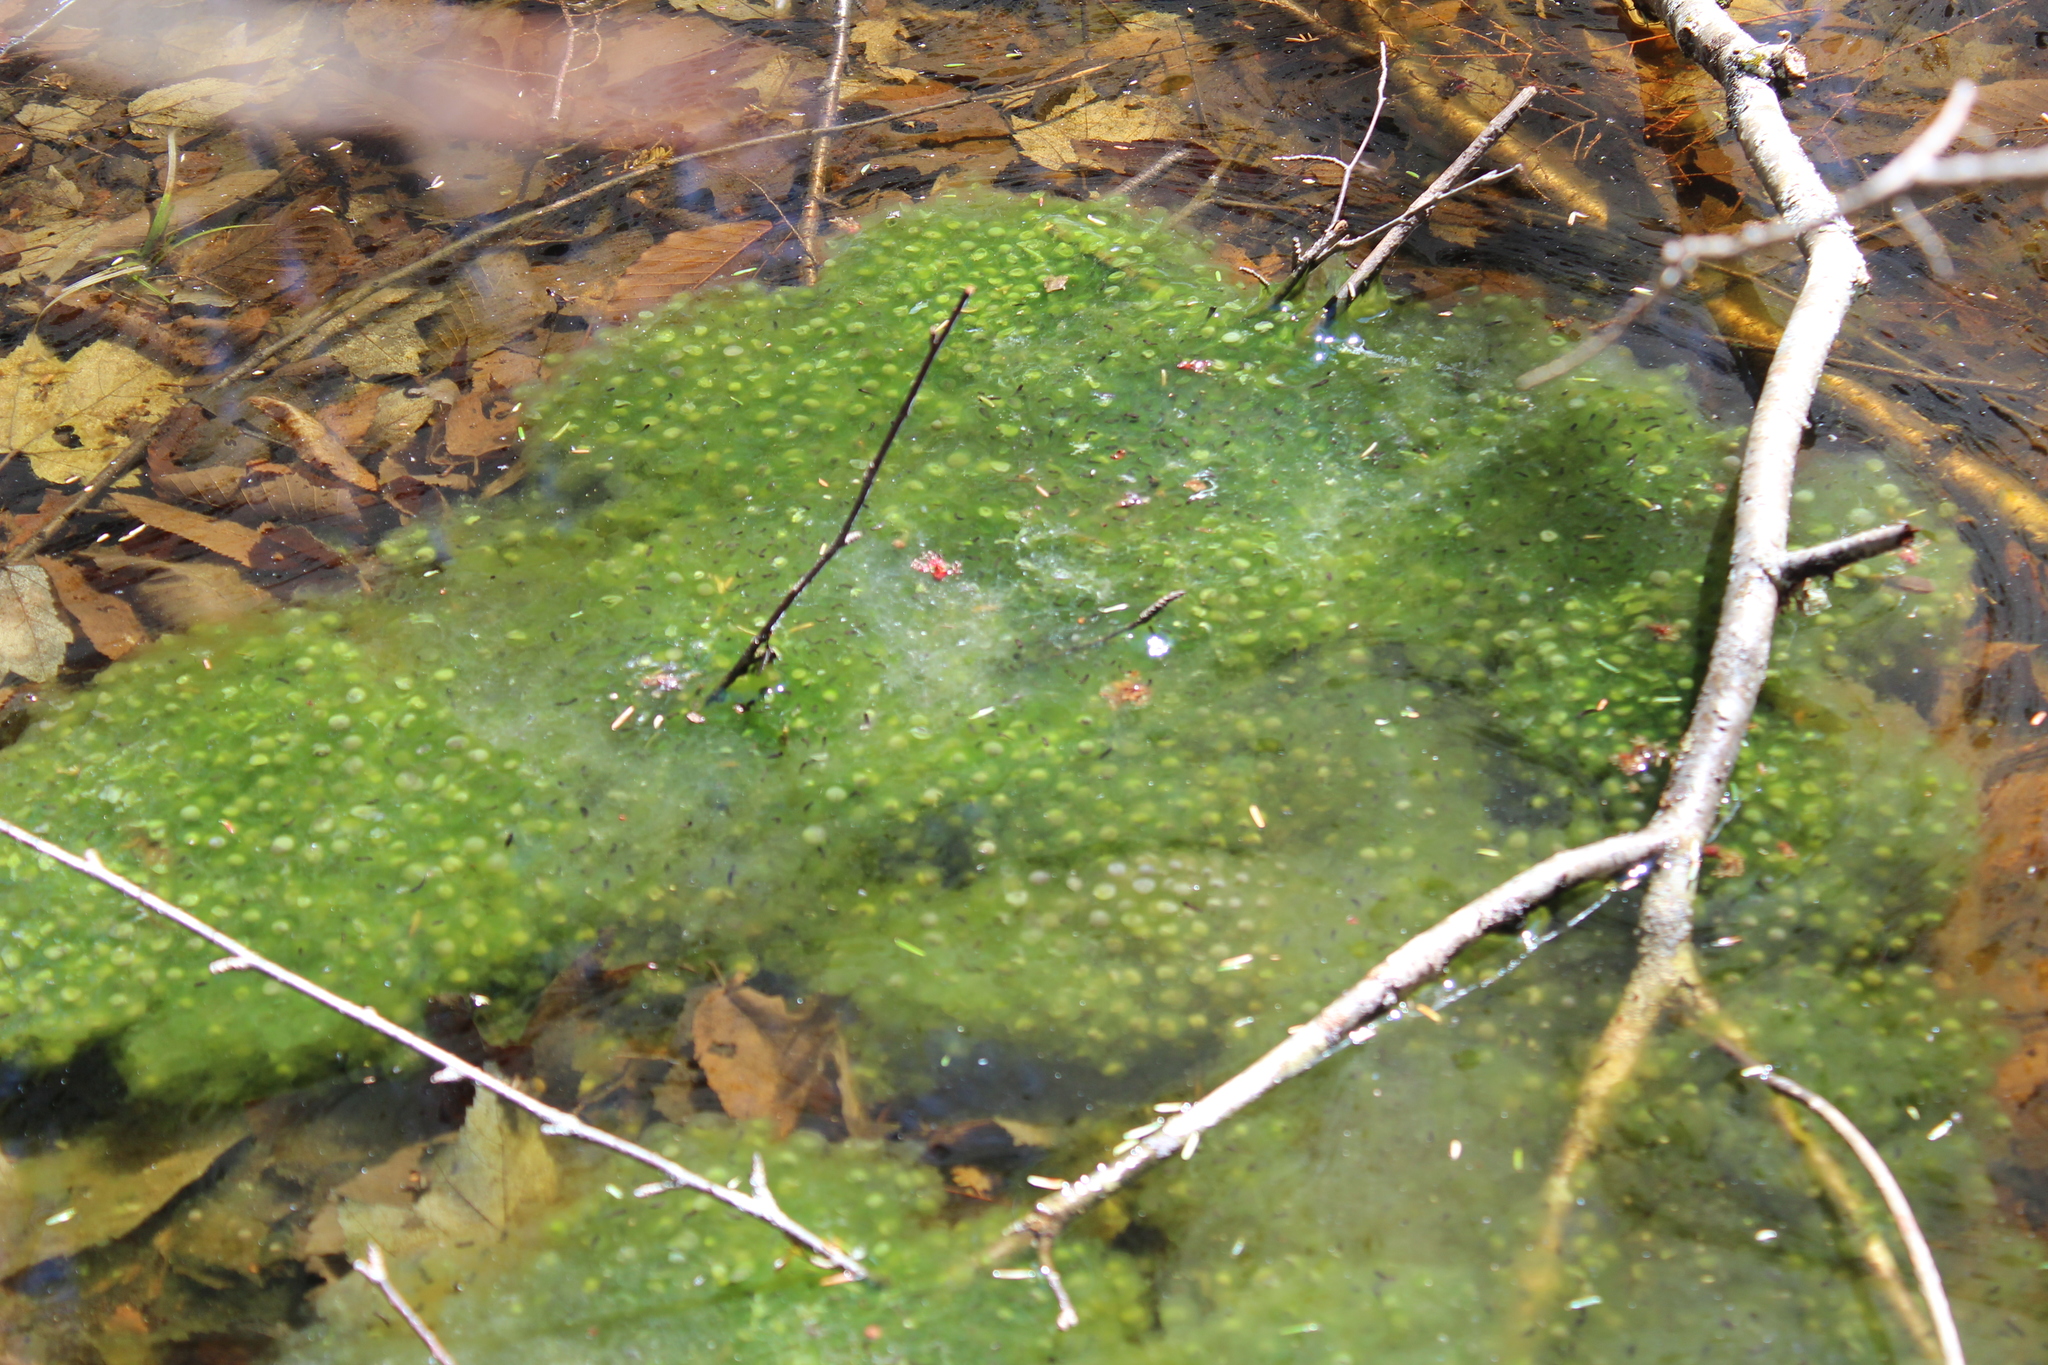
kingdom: Animalia
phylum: Chordata
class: Amphibia
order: Anura
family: Ranidae
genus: Lithobates
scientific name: Lithobates sylvaticus
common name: Wood frog
